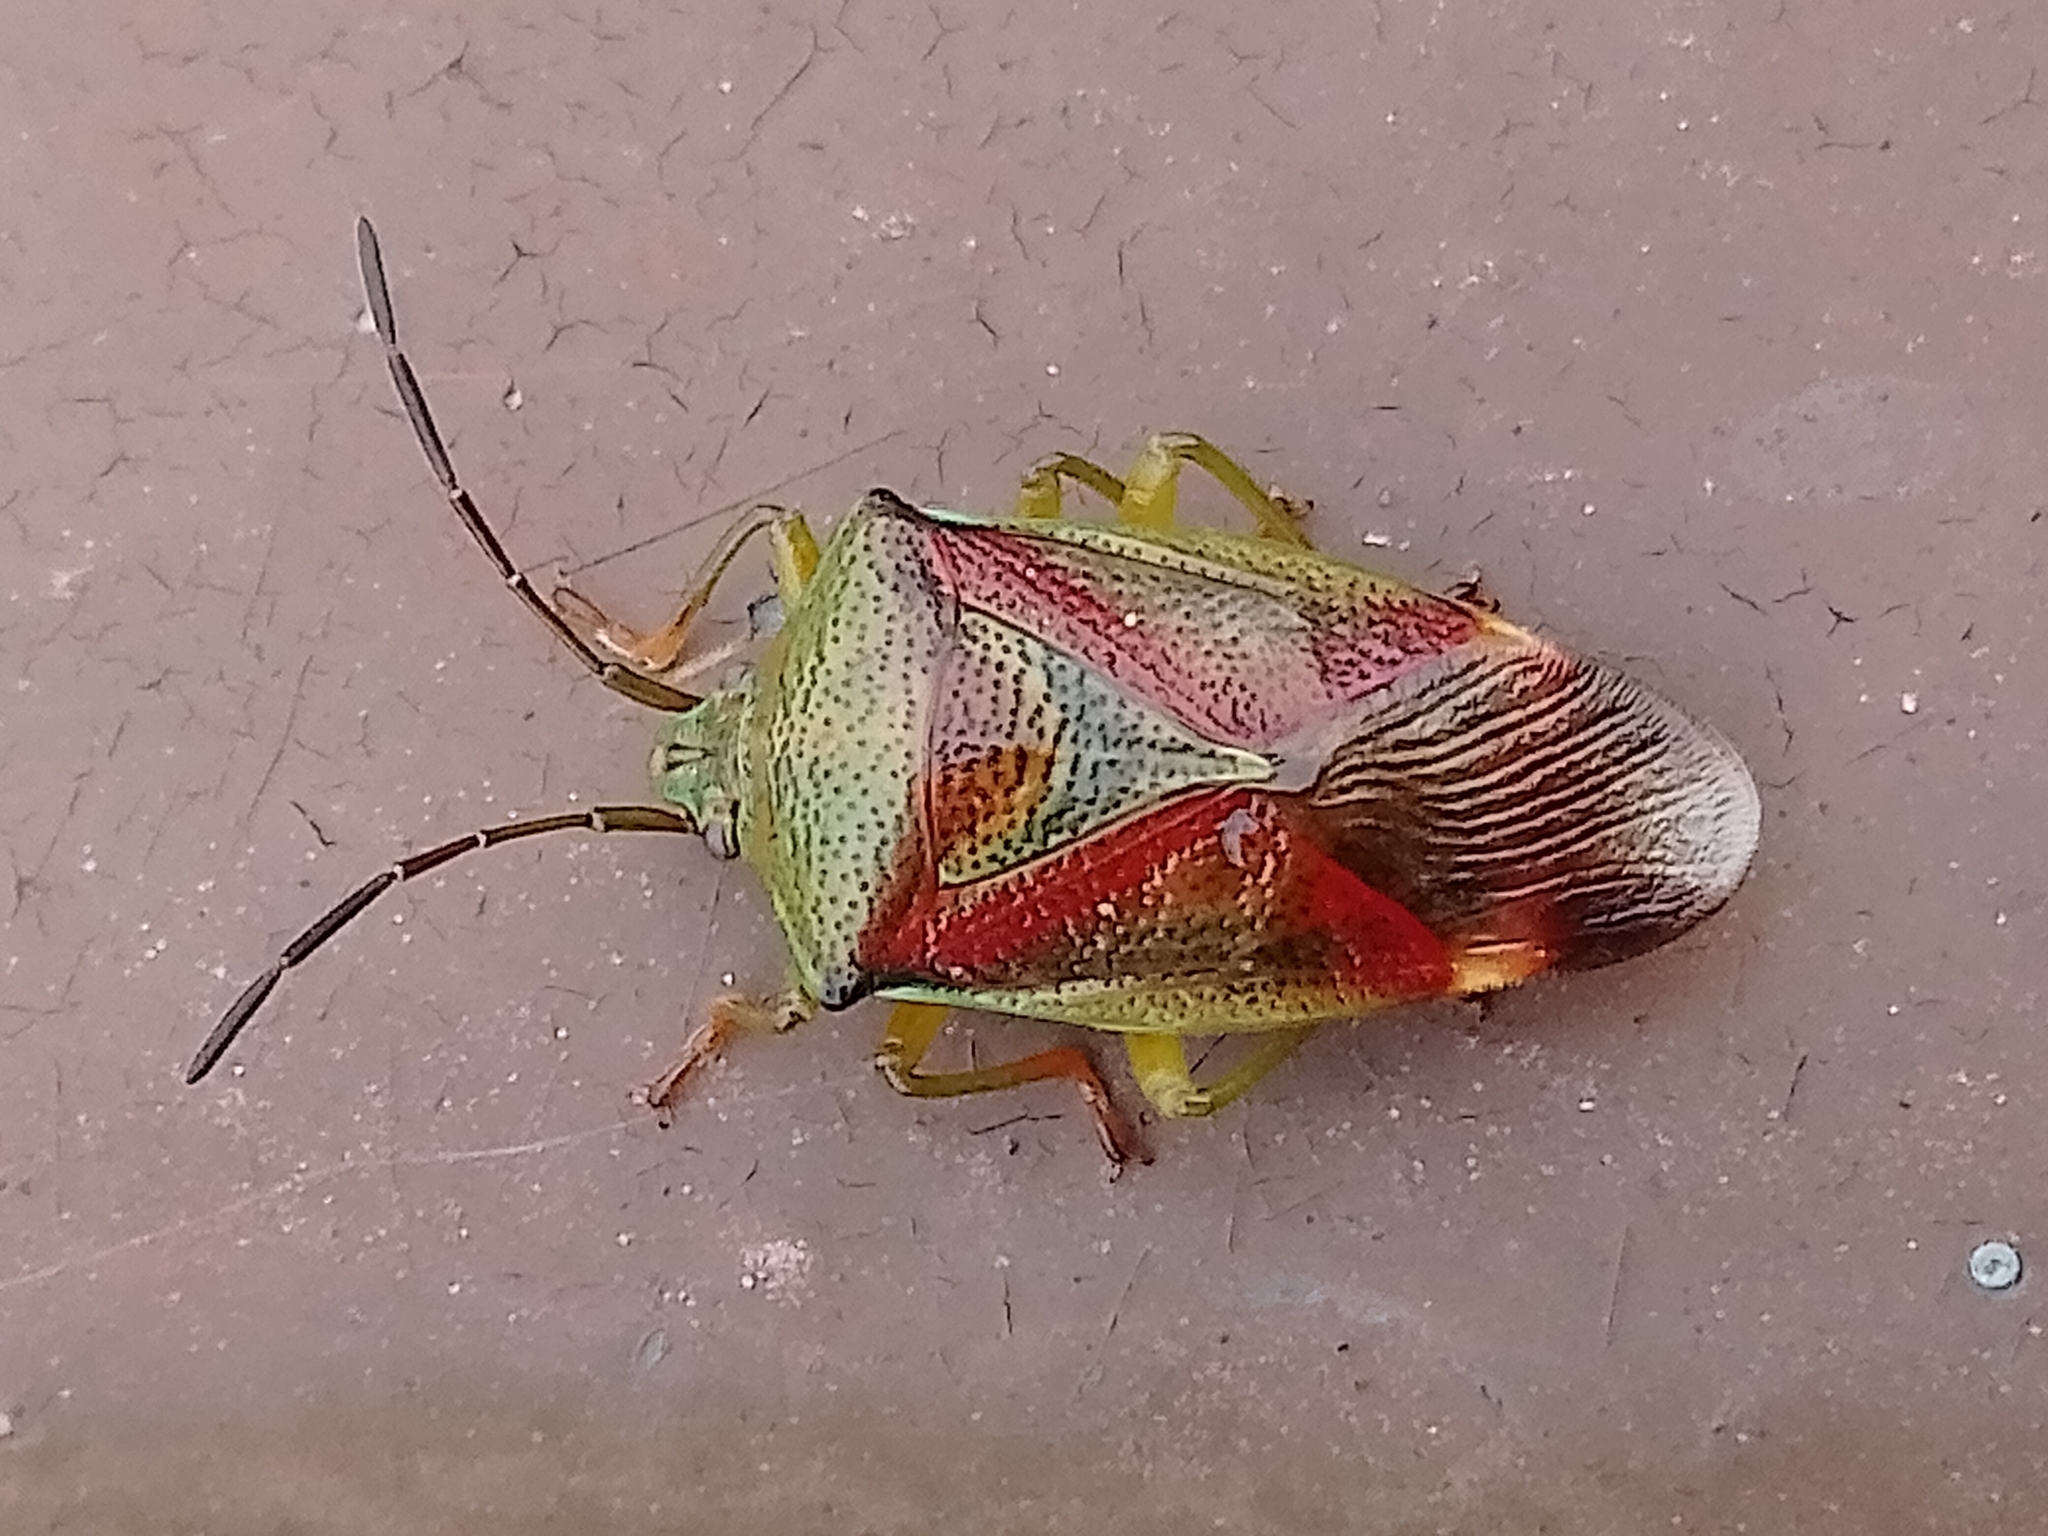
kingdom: Animalia
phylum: Arthropoda
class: Insecta
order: Hemiptera
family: Acanthosomatidae
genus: Elasmostethus
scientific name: Elasmostethus interstinctus
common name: Birch shieldbug
